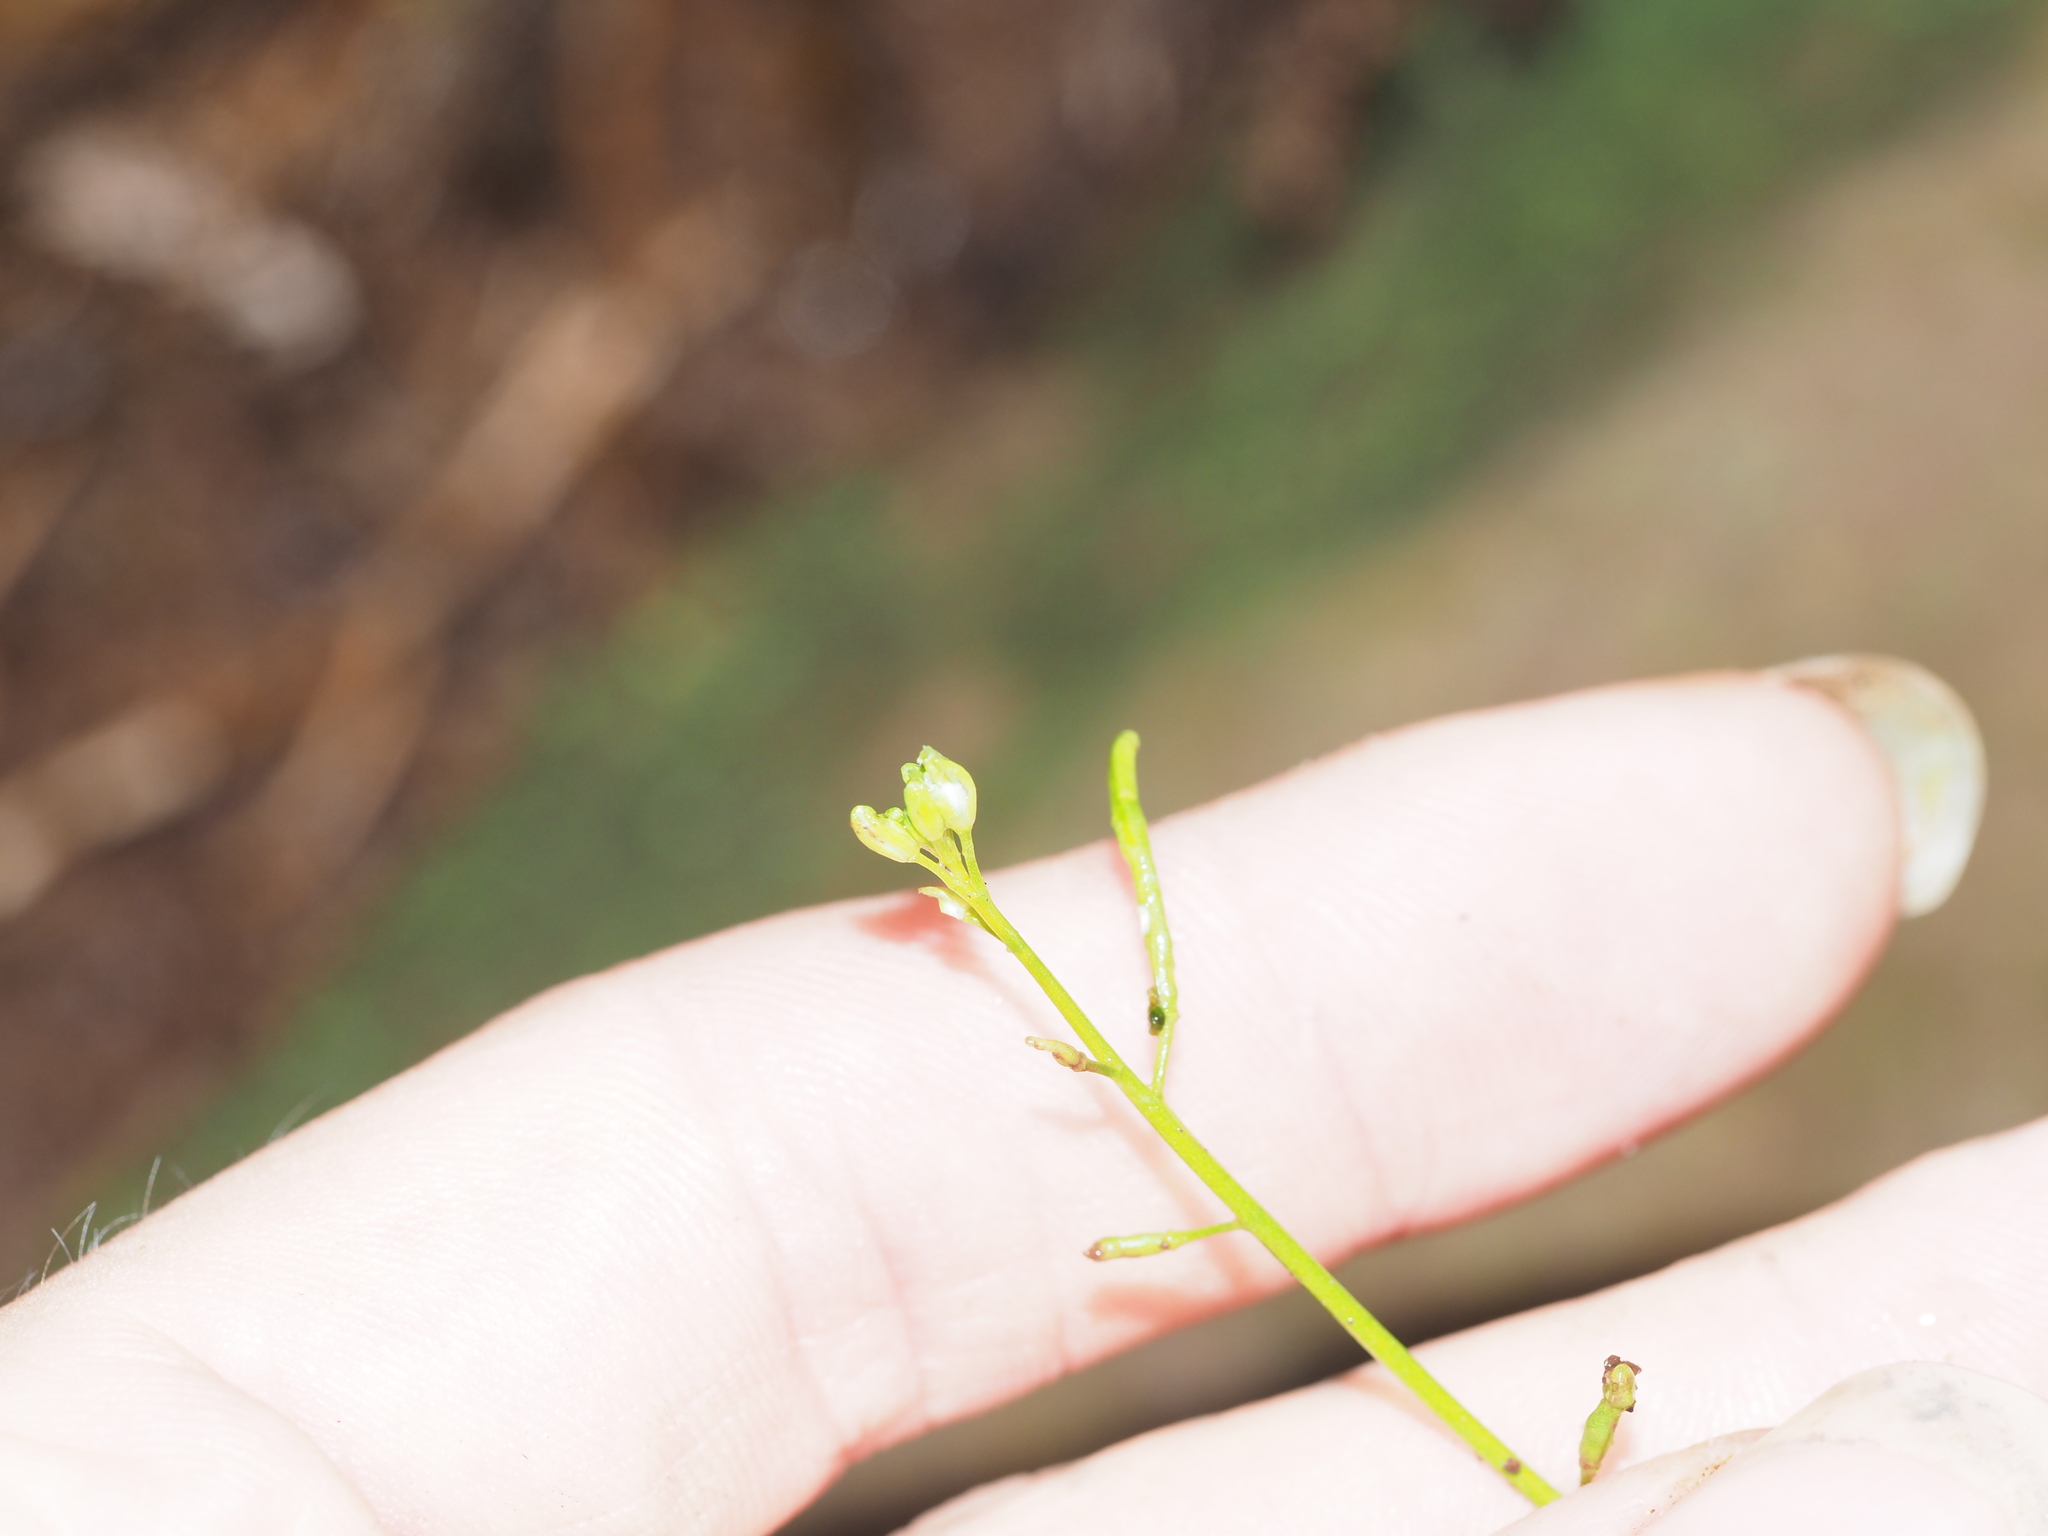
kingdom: Plantae
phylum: Tracheophyta
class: Magnoliopsida
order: Brassicales
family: Brassicaceae
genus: Rorippa
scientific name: Rorippa sarmentosa
